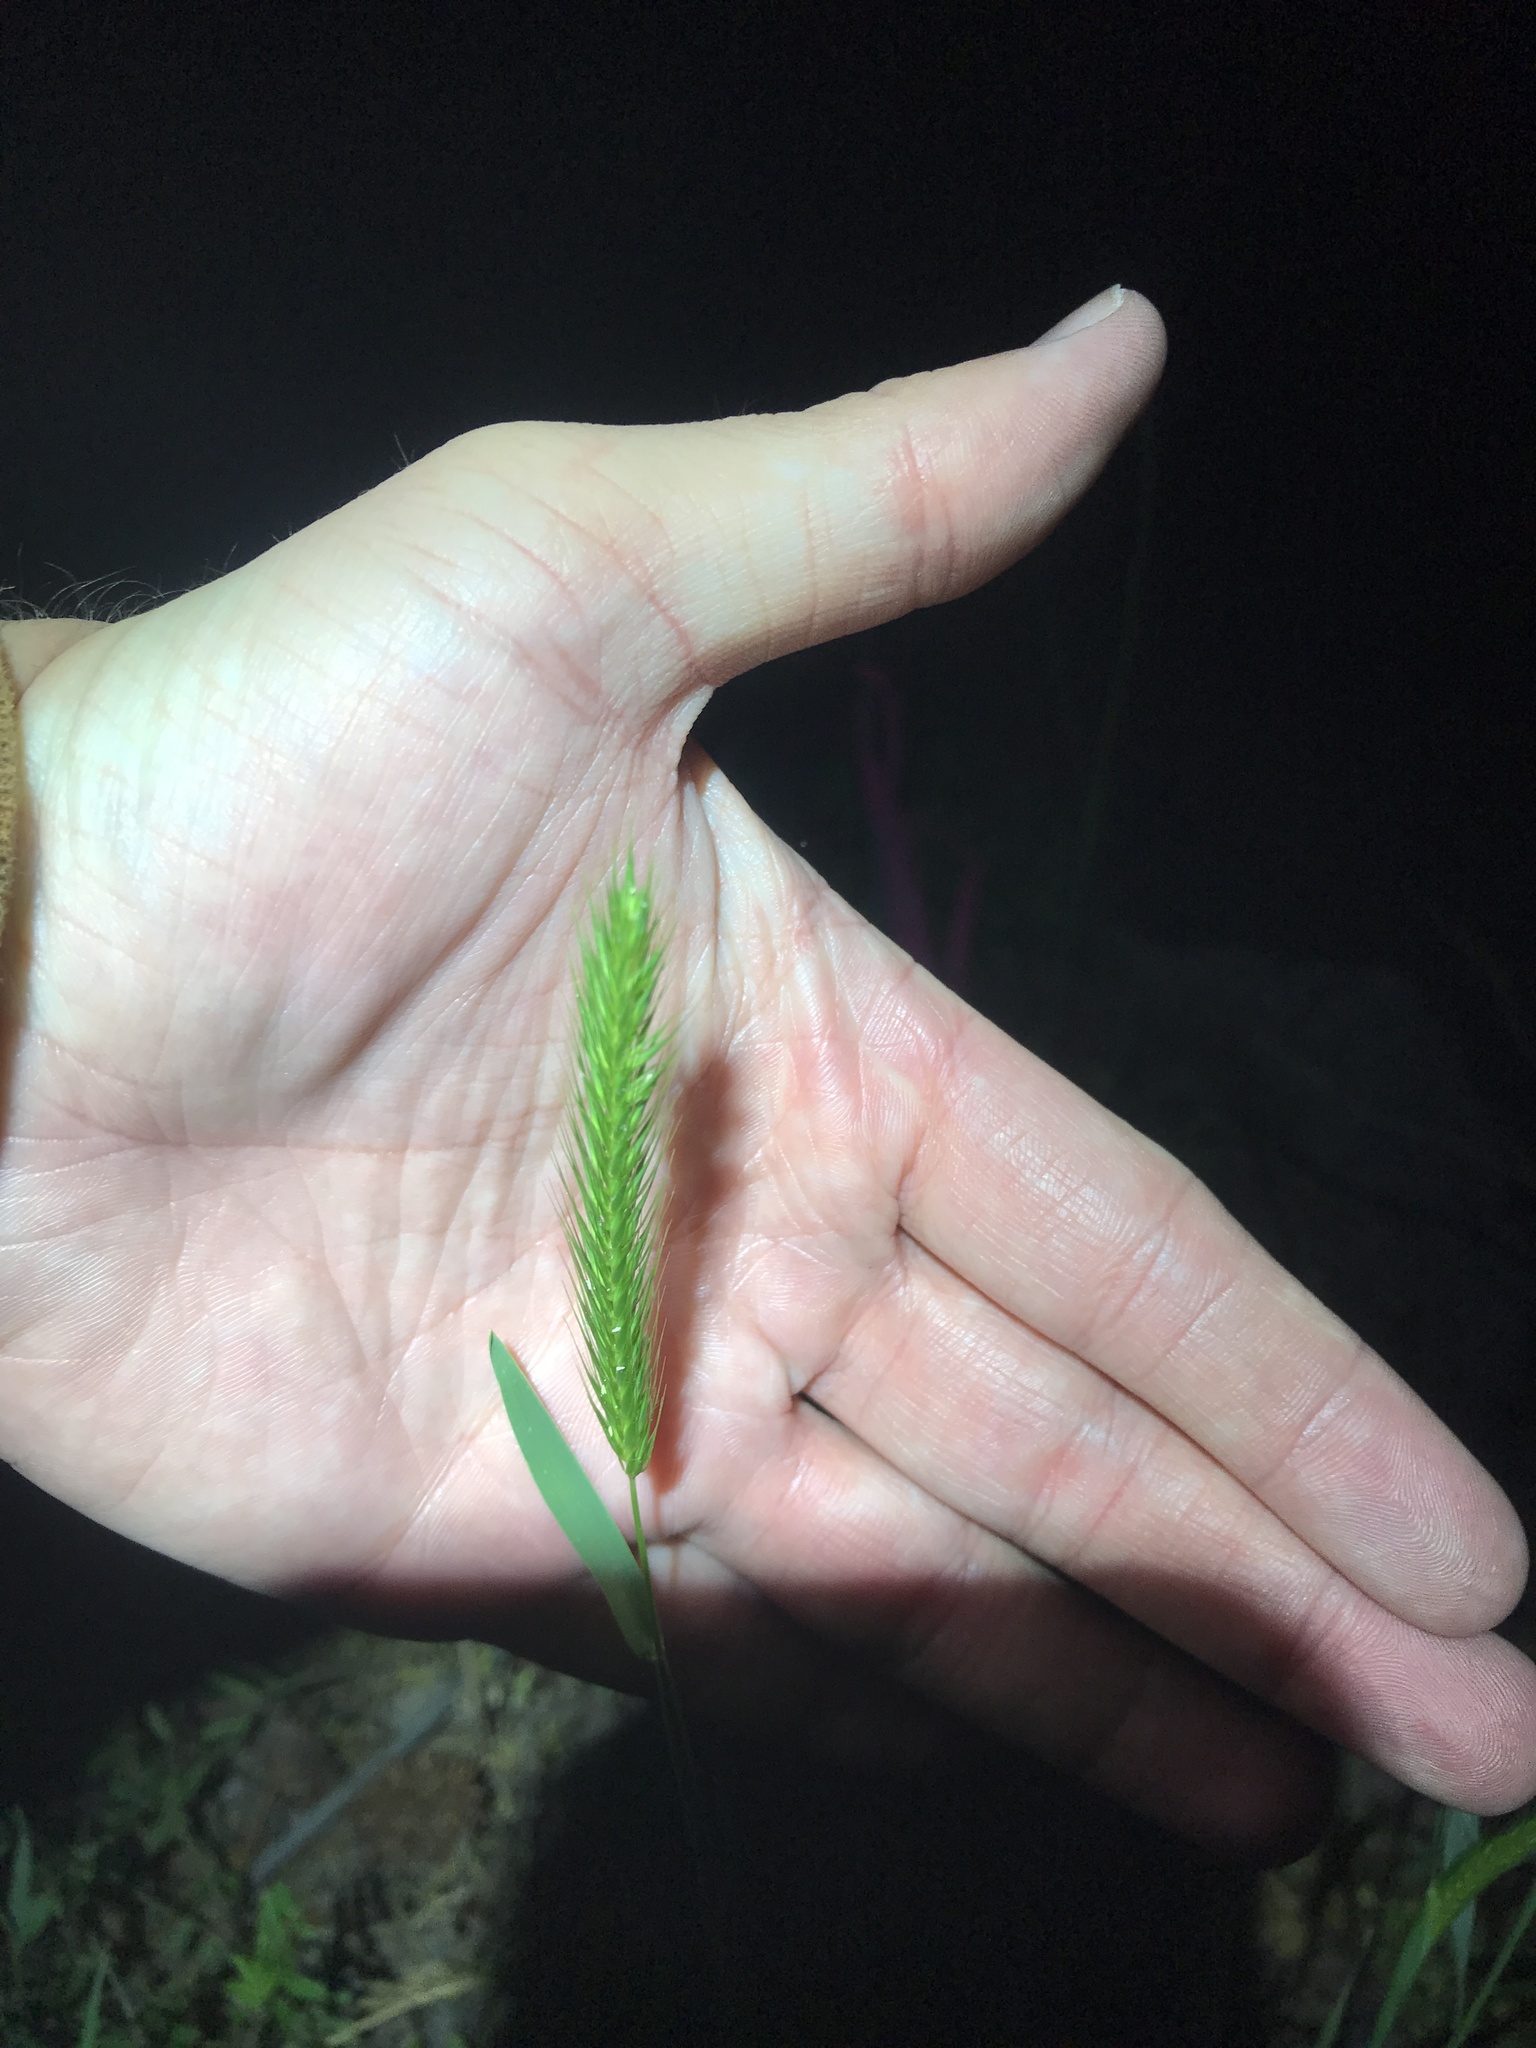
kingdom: Plantae
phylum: Tracheophyta
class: Liliopsida
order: Poales
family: Poaceae
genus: Hordeum
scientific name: Hordeum pusillum
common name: Little barley
